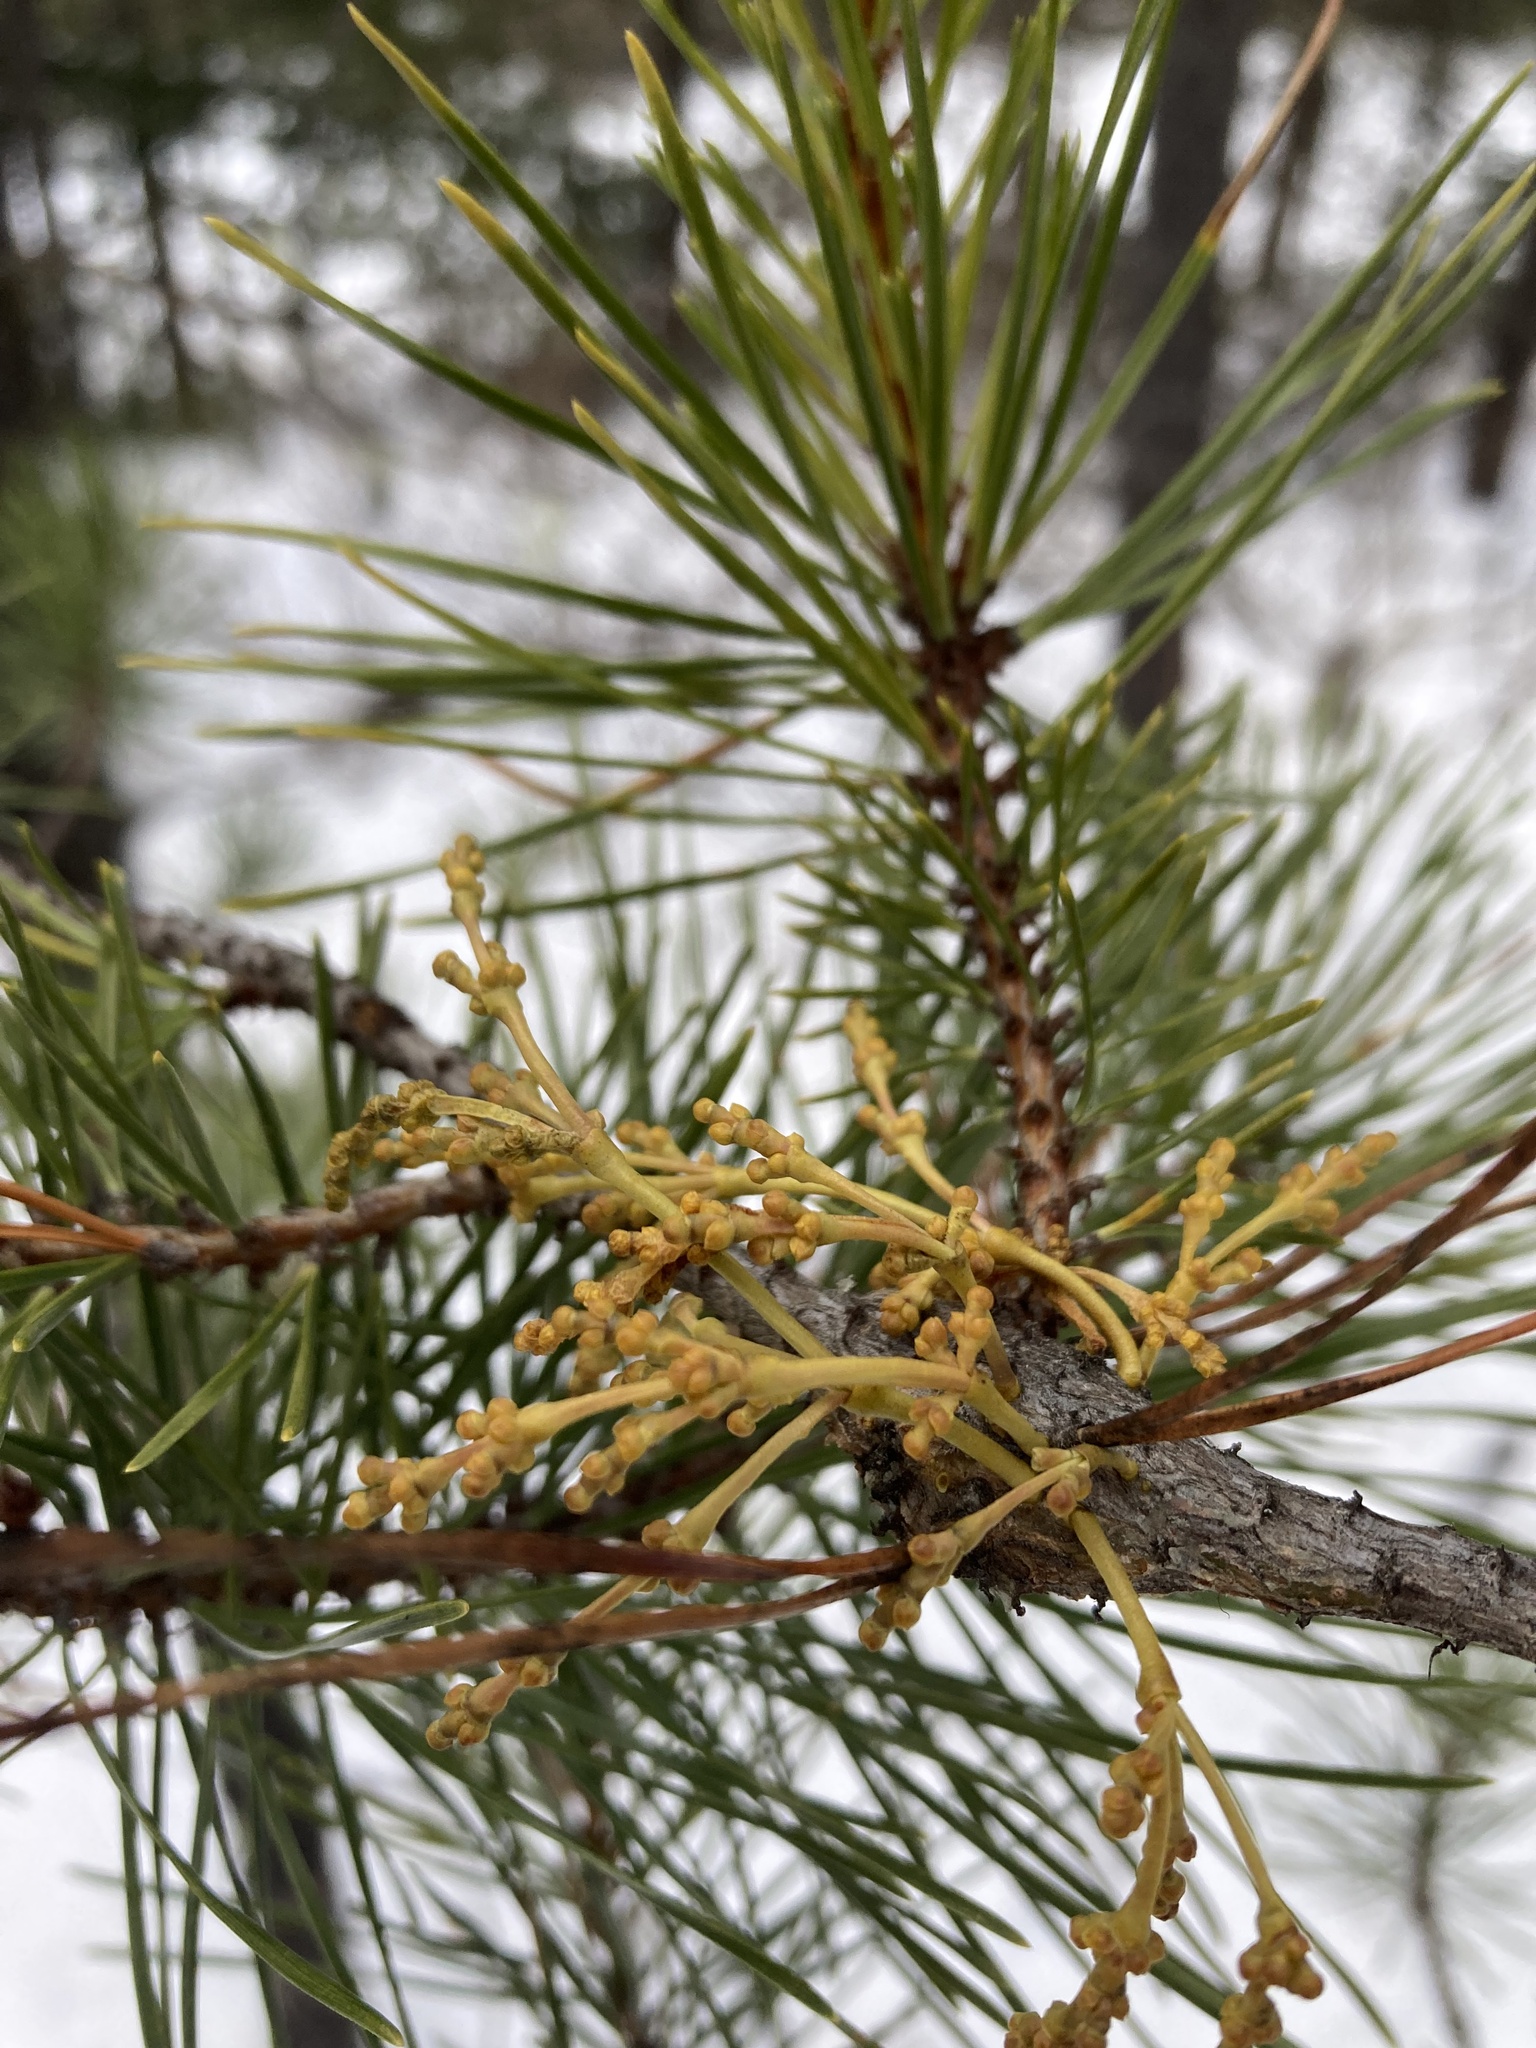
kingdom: Plantae
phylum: Tracheophyta
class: Magnoliopsida
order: Santalales
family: Viscaceae
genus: Arceuthobium
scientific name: Arceuthobium americanum
